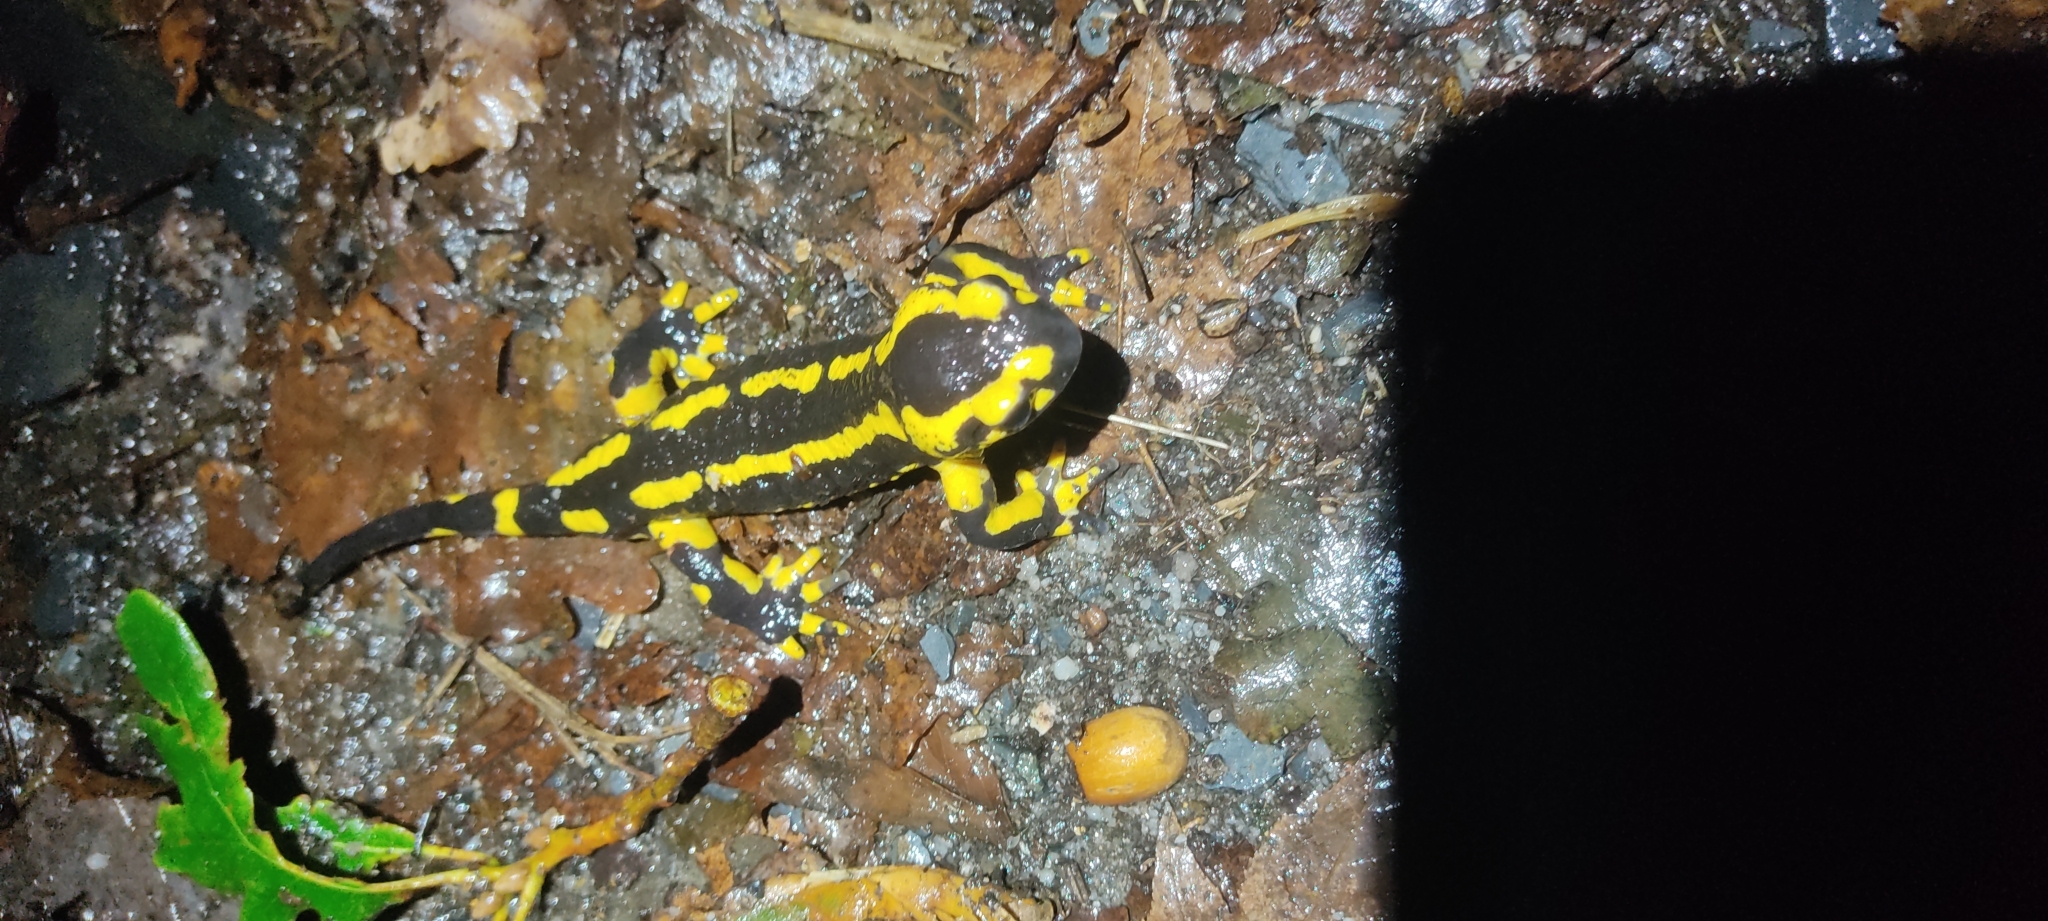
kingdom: Animalia
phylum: Chordata
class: Amphibia
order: Caudata
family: Salamandridae
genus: Salamandra
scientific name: Salamandra salamandra
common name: Fire salamander
